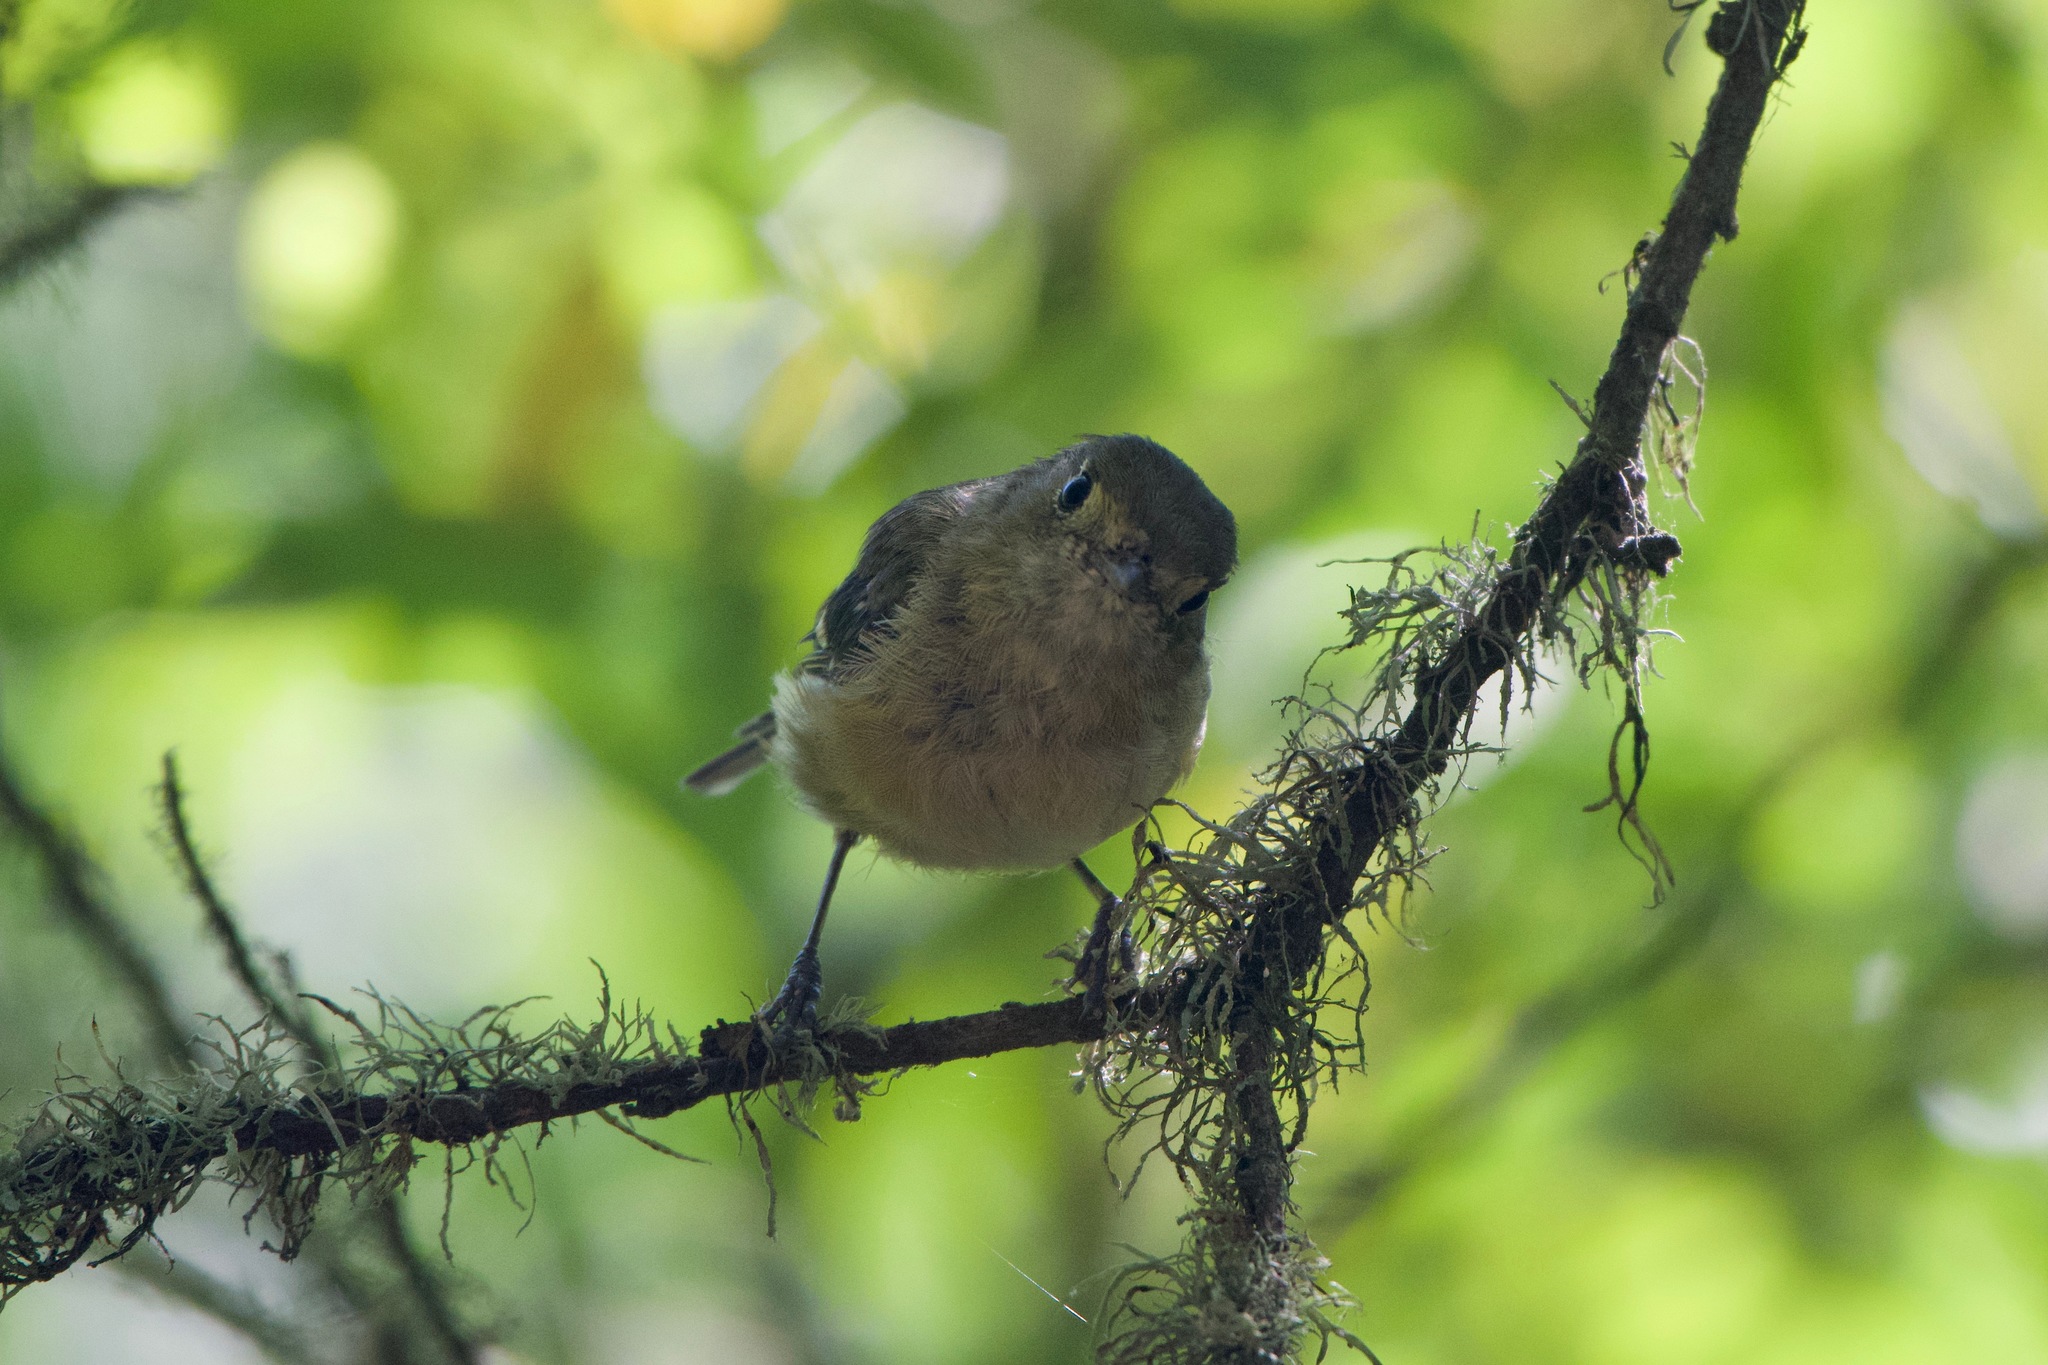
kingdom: Animalia
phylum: Chordata
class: Aves
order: Passeriformes
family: Vireonidae
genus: Vireo
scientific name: Vireo huttoni
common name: Hutton's vireo
